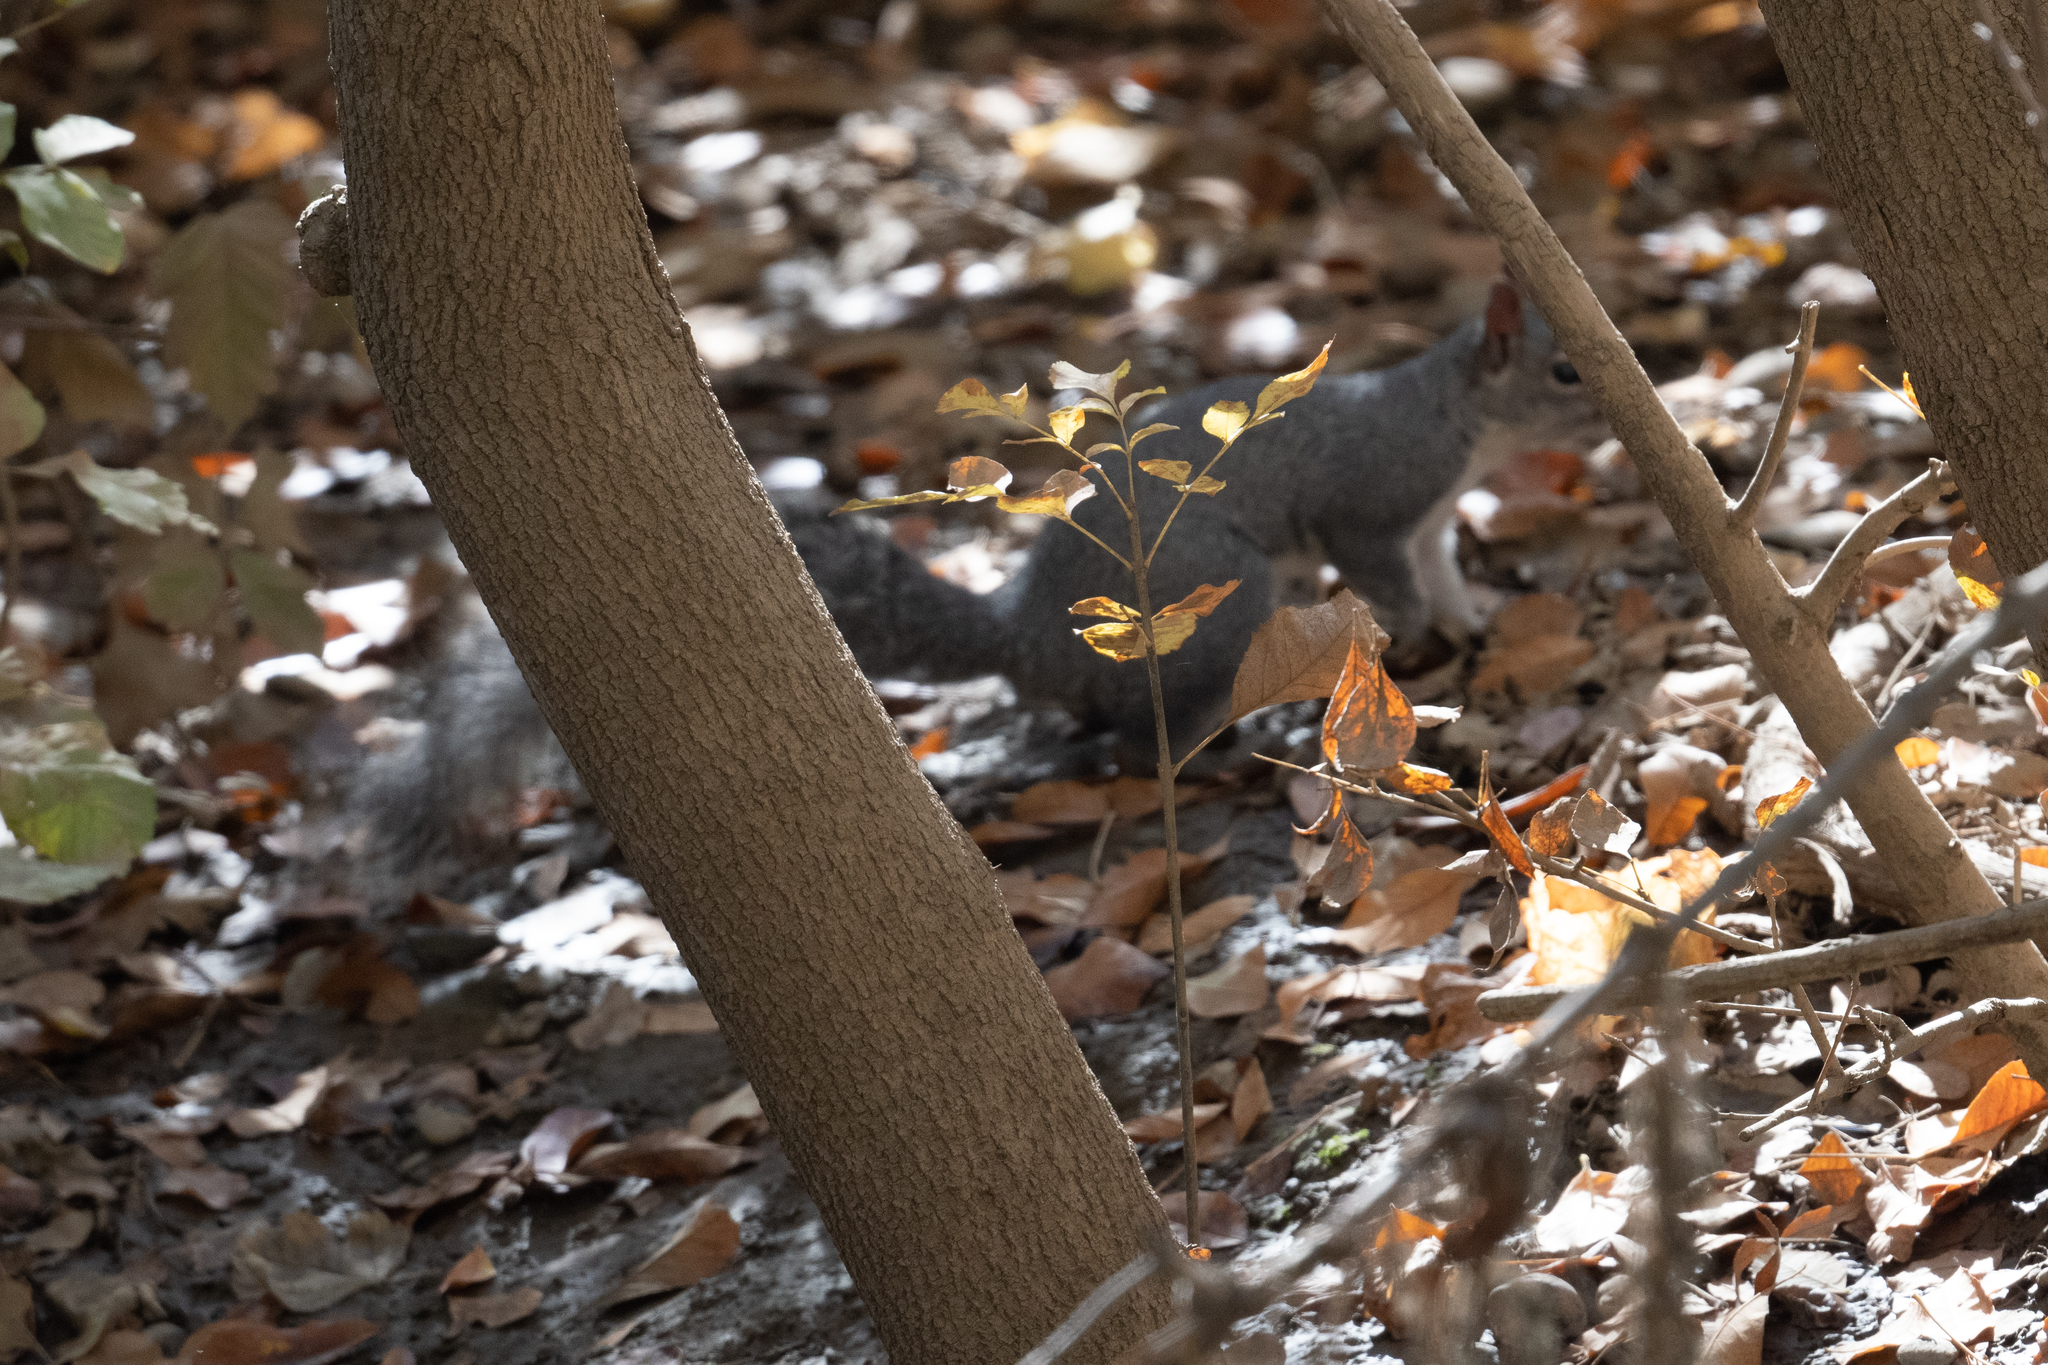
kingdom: Animalia
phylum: Chordata
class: Mammalia
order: Rodentia
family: Sciuridae
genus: Sciurus
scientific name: Sciurus griseus
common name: Western gray squirrel
